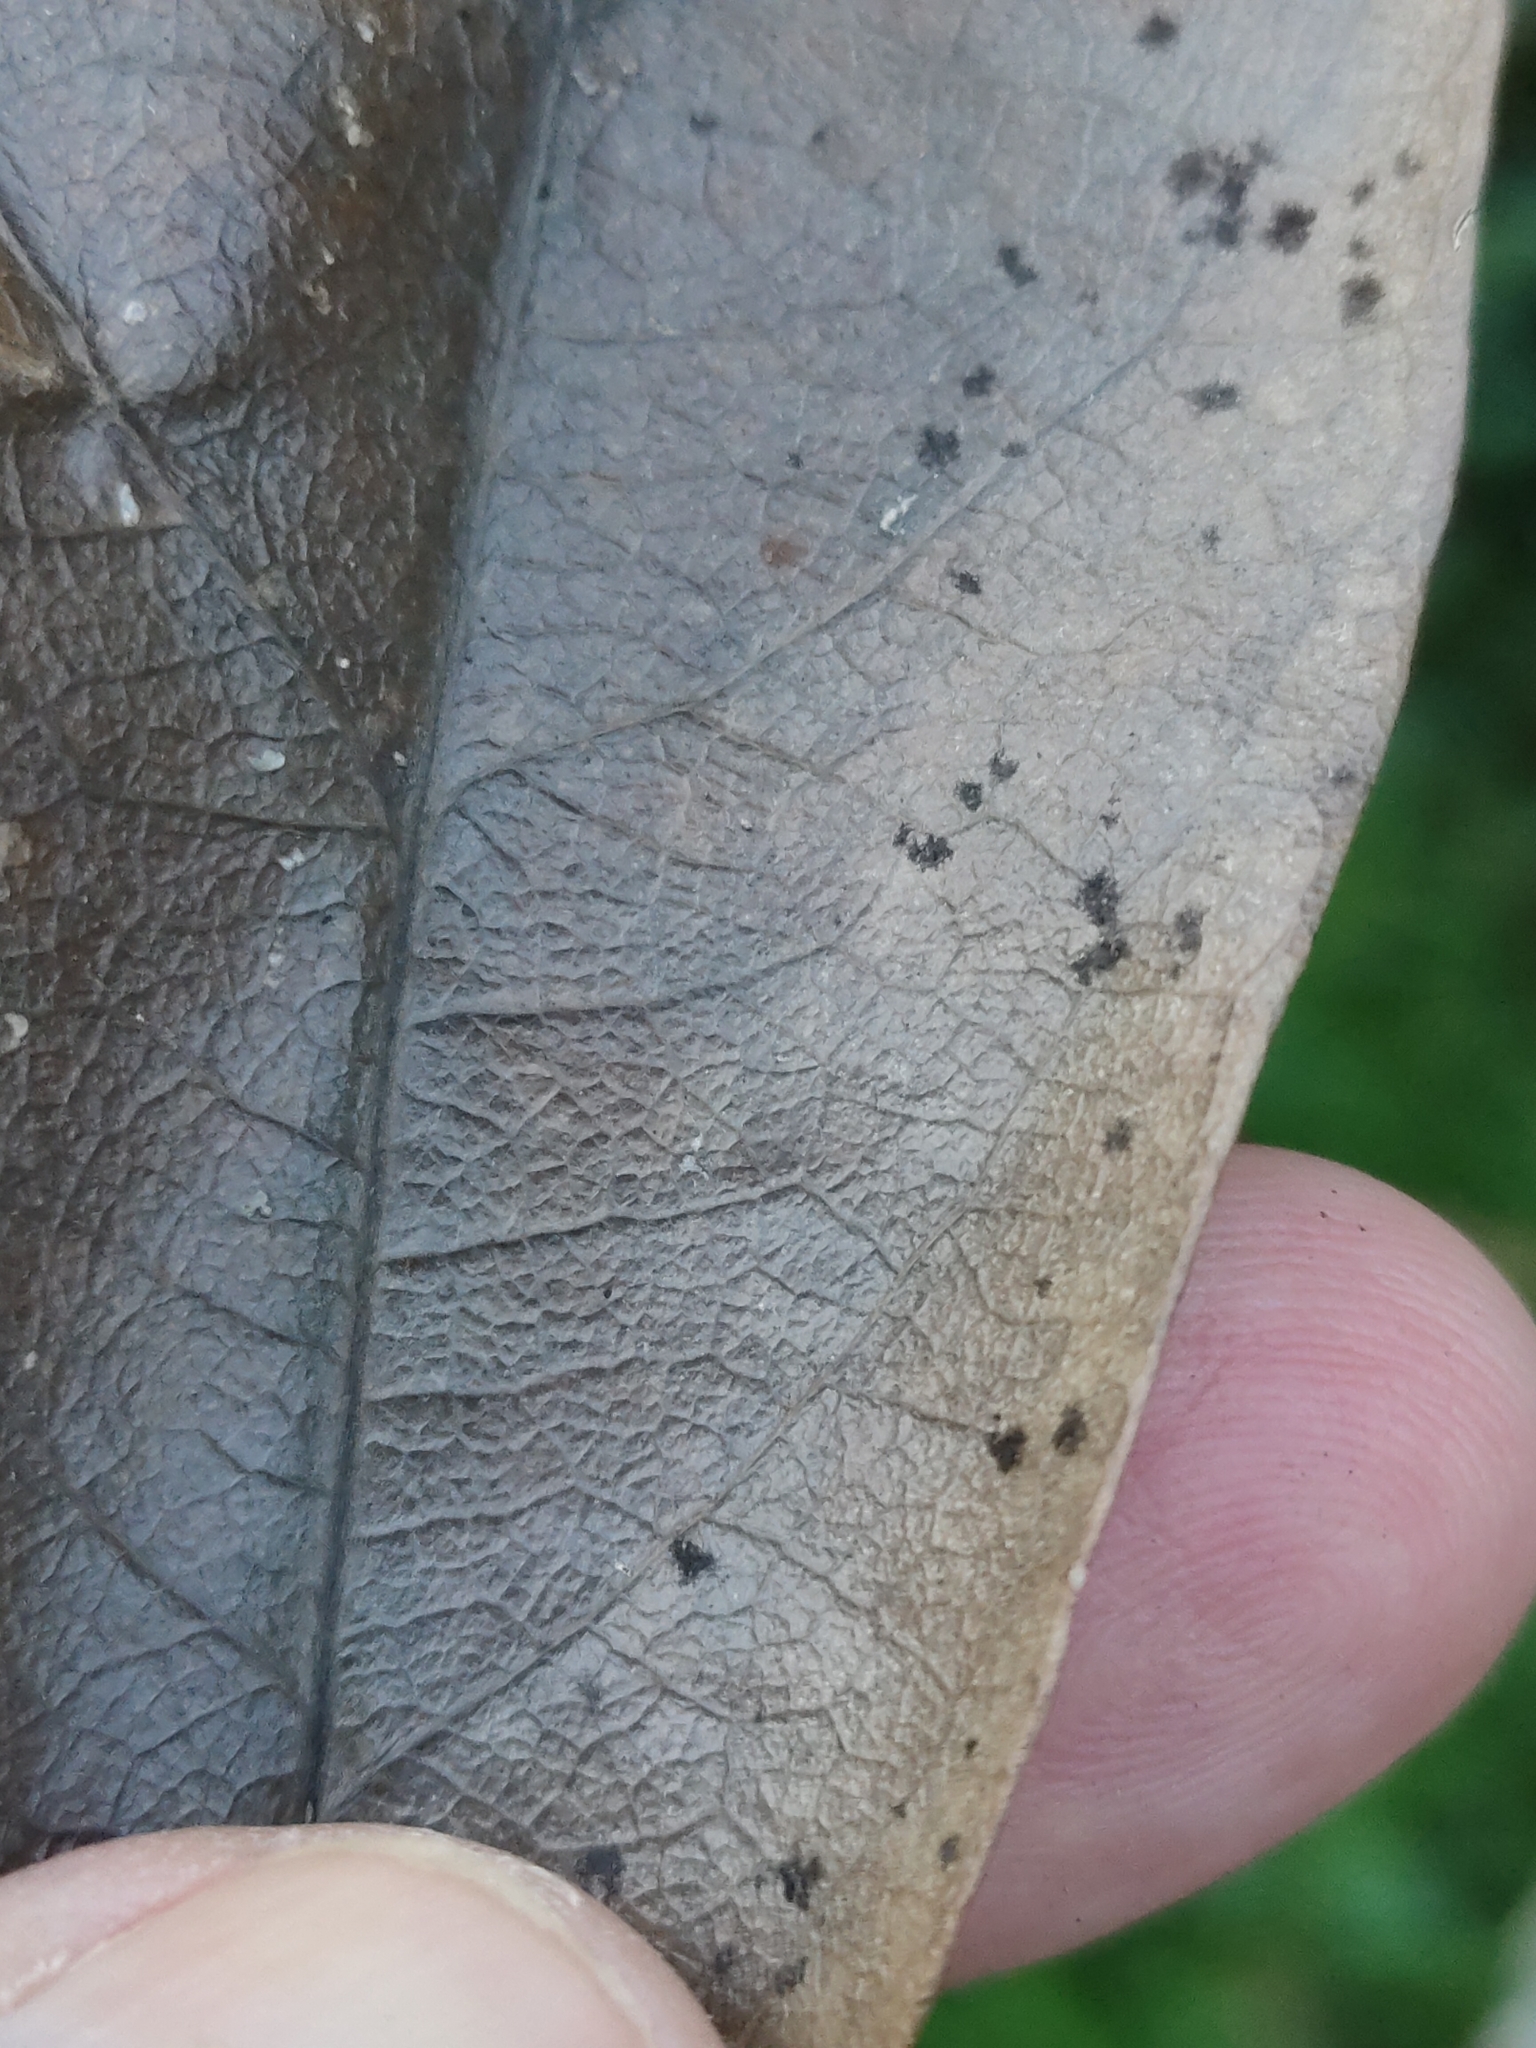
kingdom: Plantae
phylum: Tracheophyta
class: Magnoliopsida
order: Gentianales
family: Apocynaceae
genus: Parsonsia
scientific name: Parsonsia straminea
